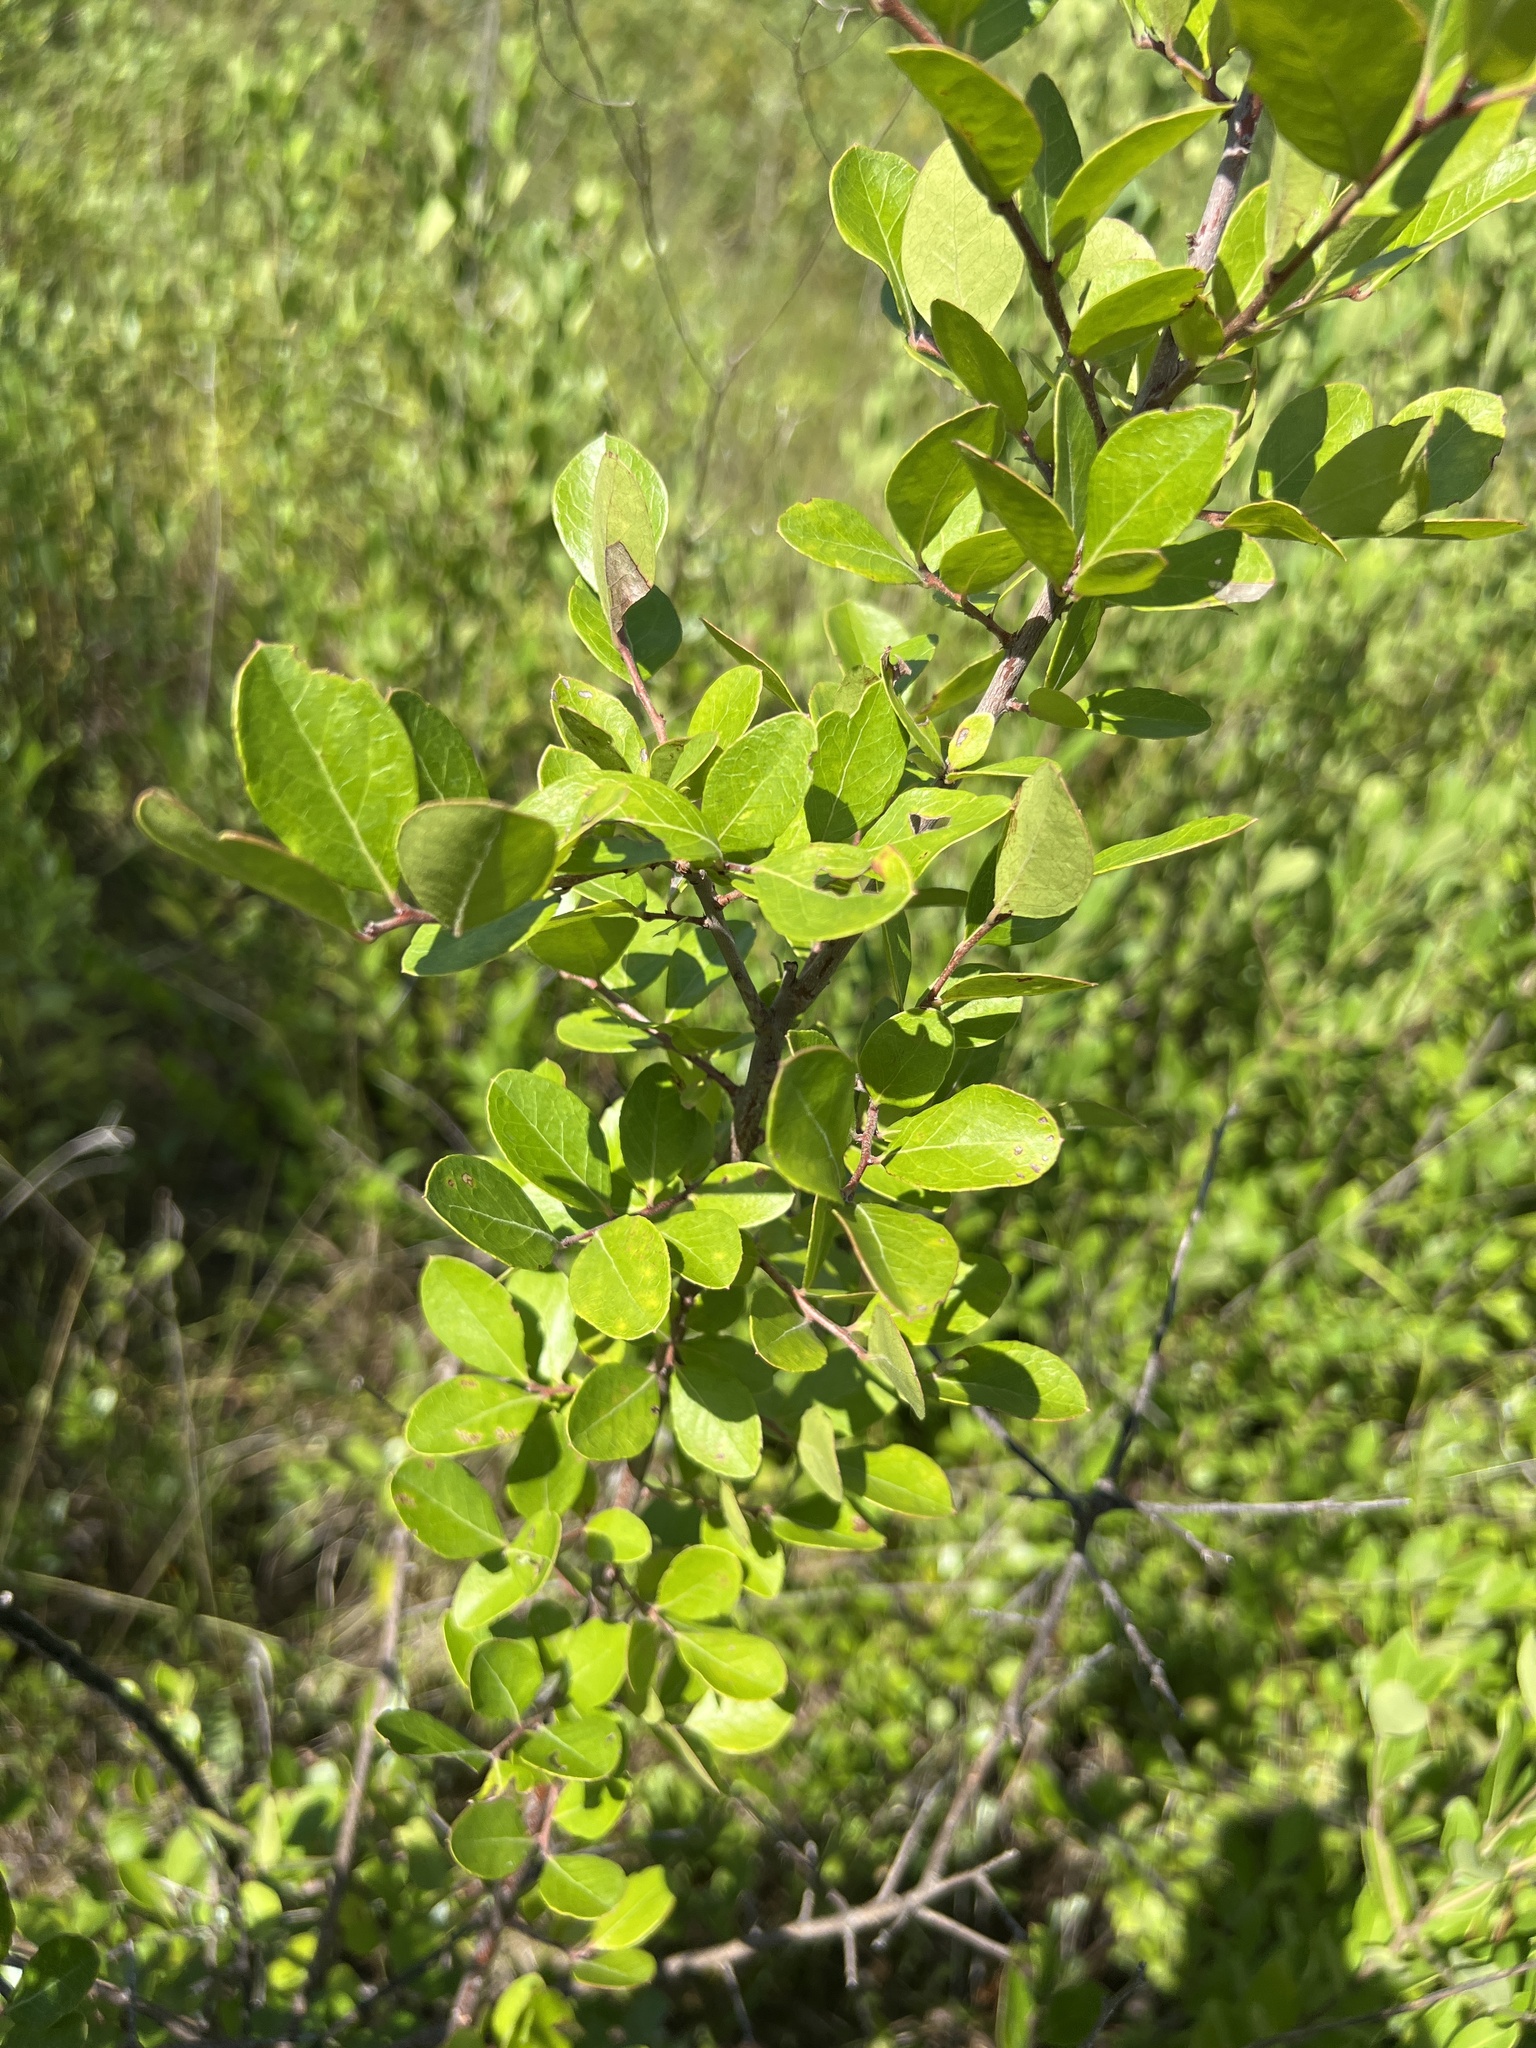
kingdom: Plantae
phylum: Tracheophyta
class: Magnoliopsida
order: Ericales
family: Ericaceae
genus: Vaccinium
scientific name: Vaccinium arboreum
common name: Farkleberry
